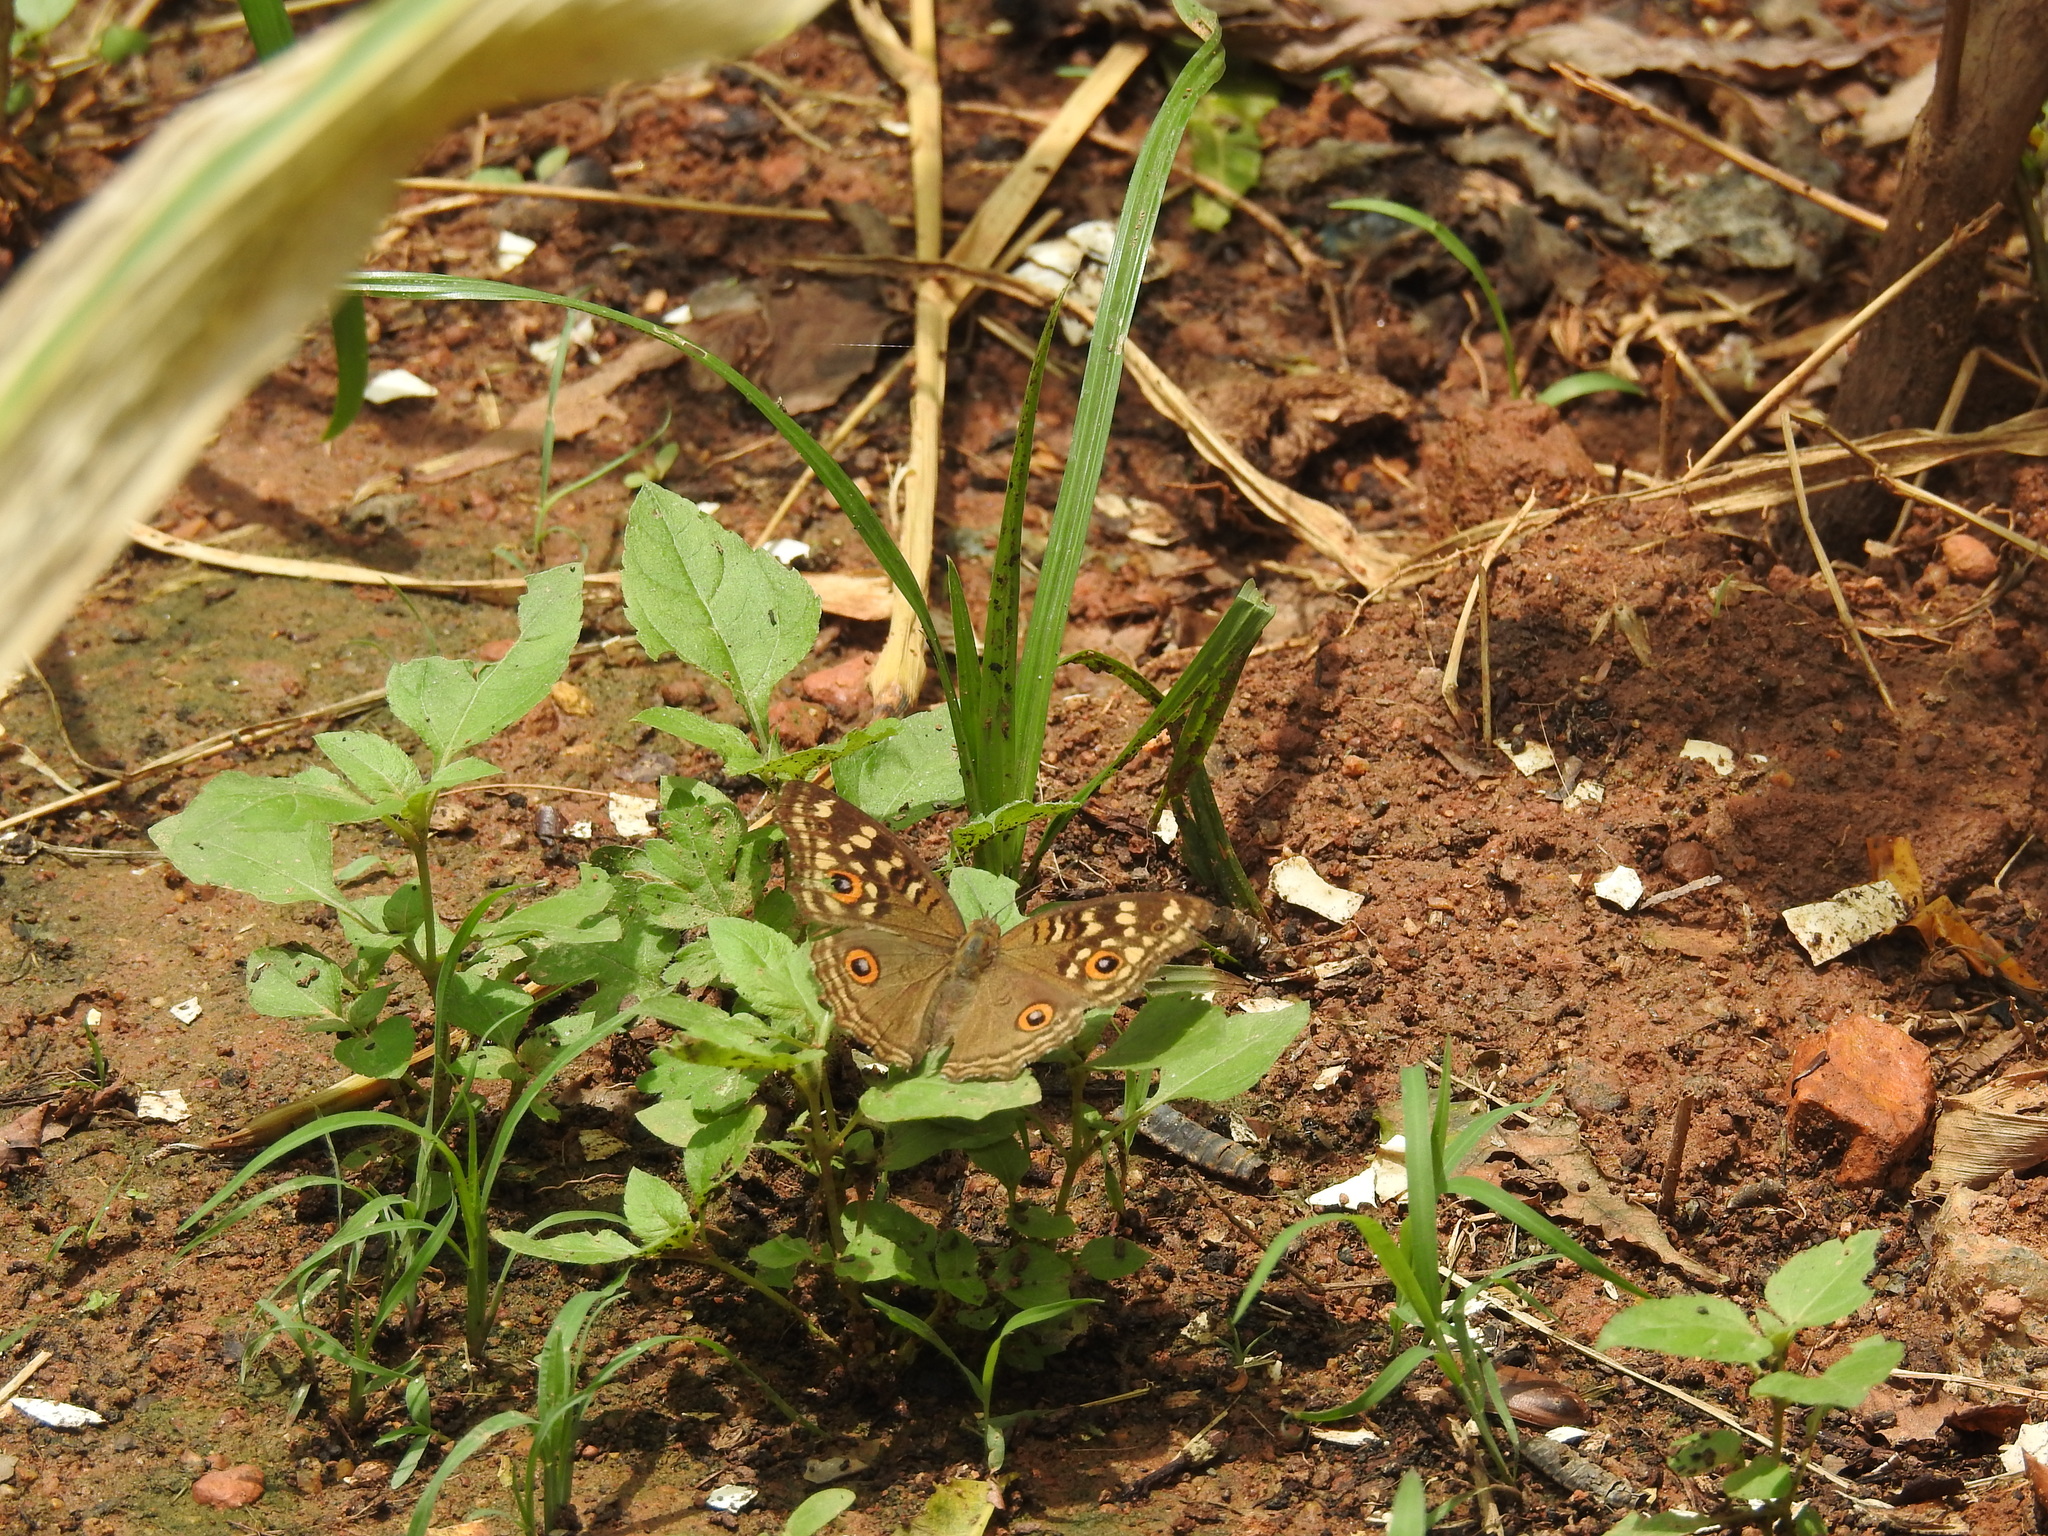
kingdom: Animalia
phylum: Arthropoda
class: Insecta
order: Lepidoptera
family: Nymphalidae
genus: Junonia
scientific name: Junonia lemonias
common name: Lemon pansy
